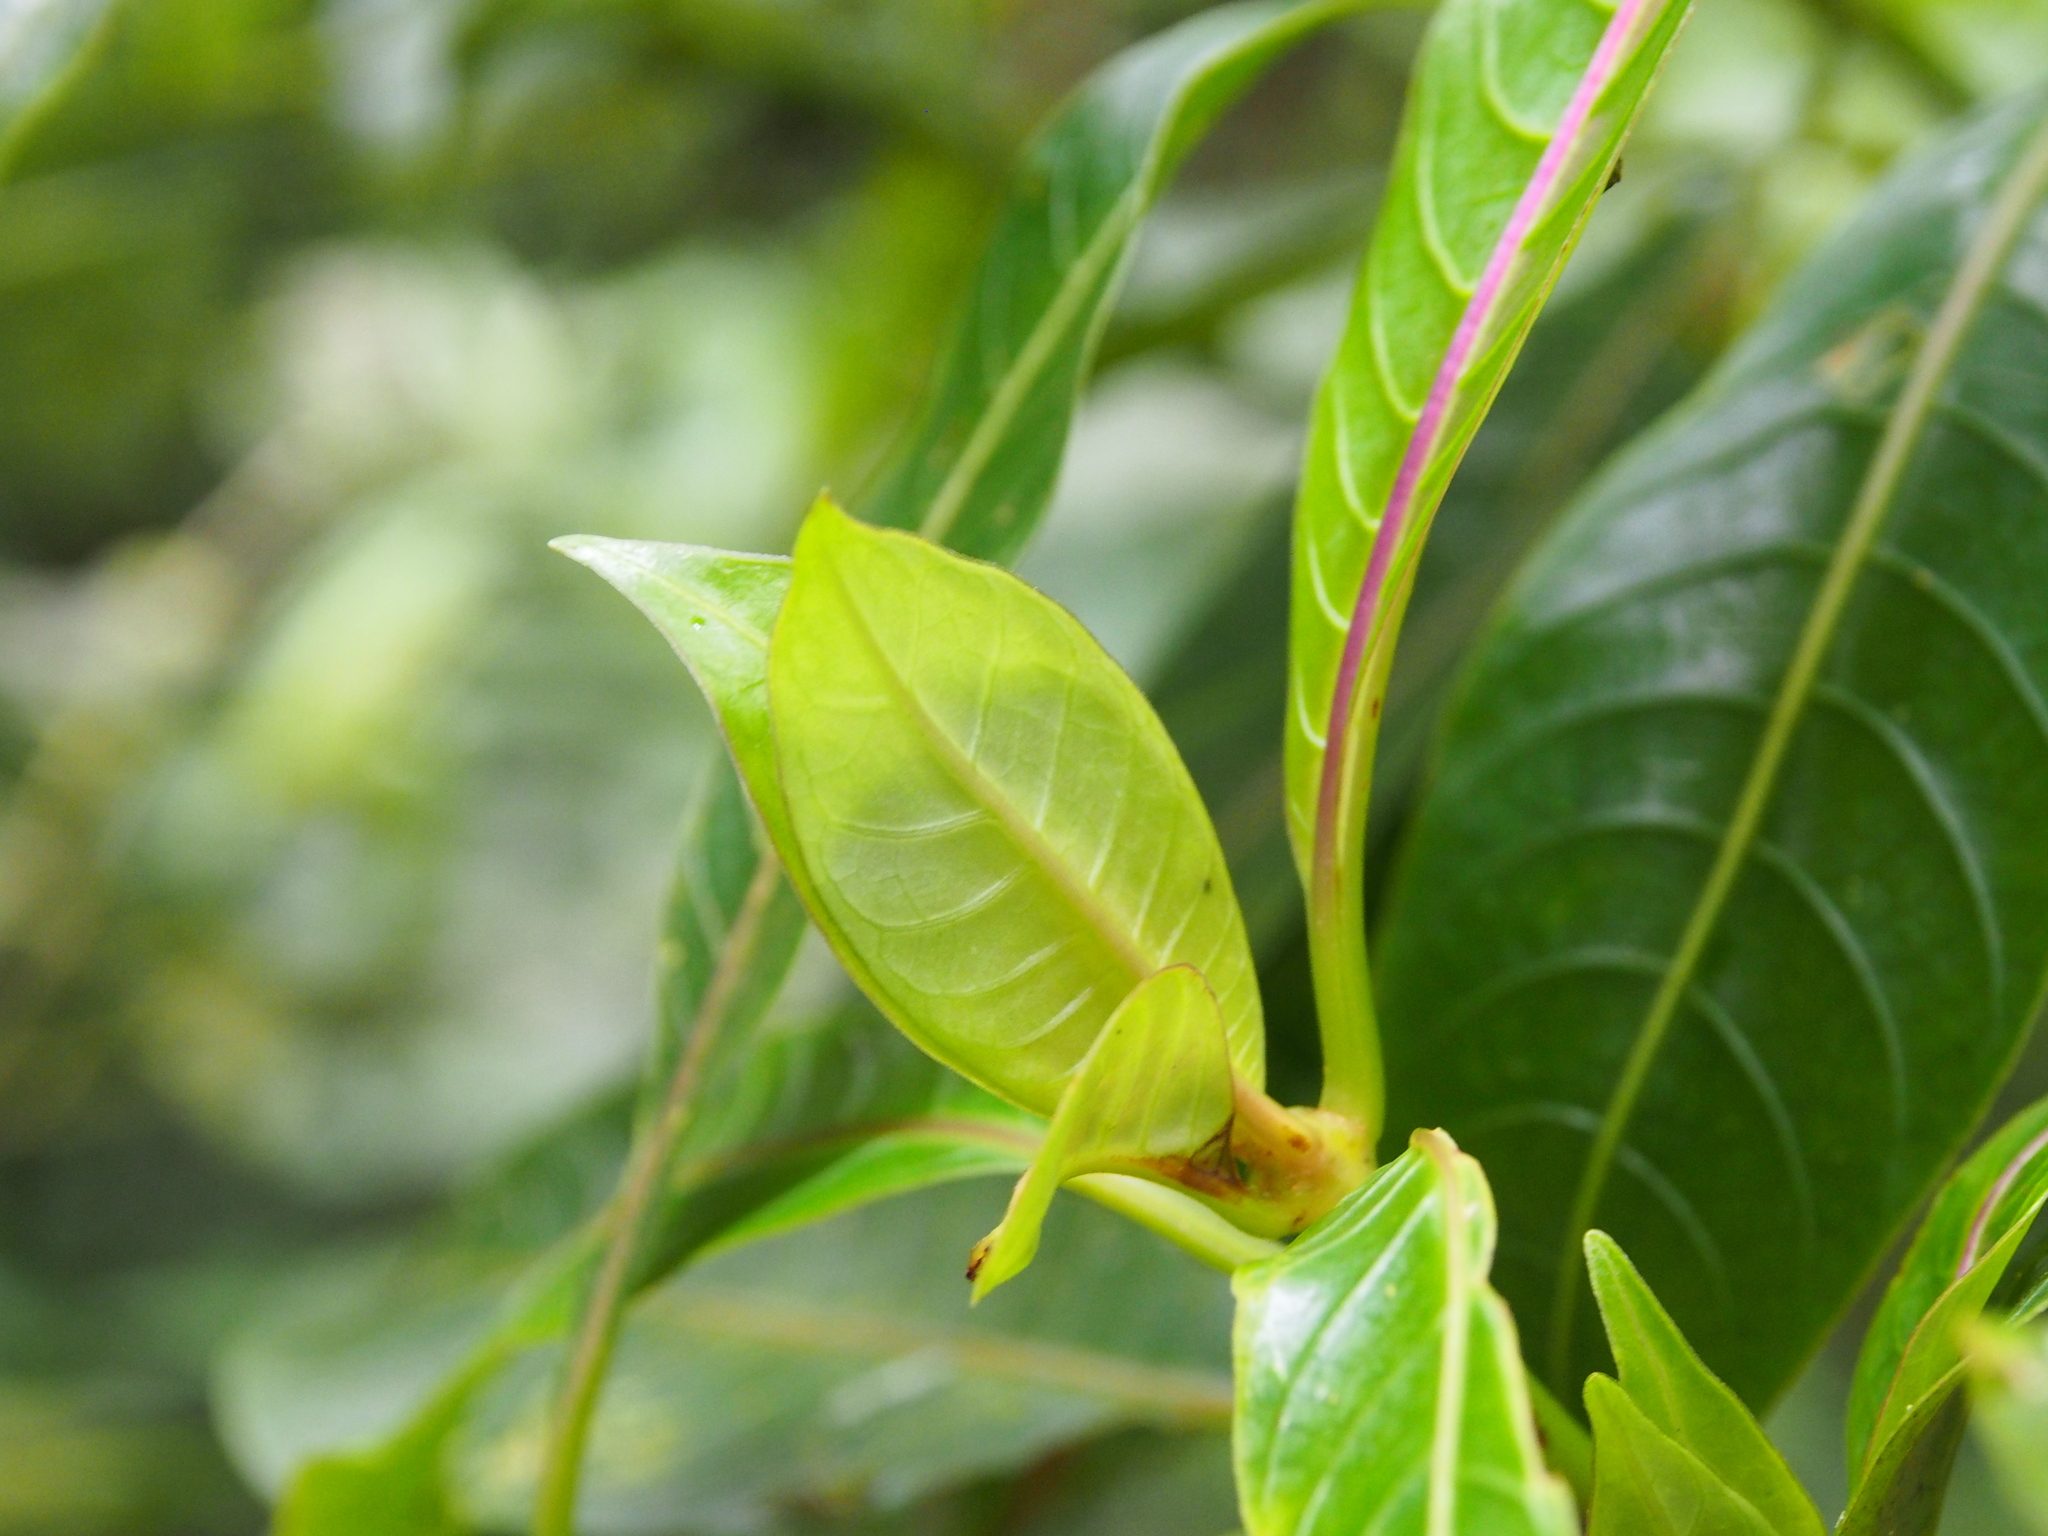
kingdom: Plantae
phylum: Tracheophyta
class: Magnoliopsida
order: Gentianales
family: Rubiaceae
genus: Palicourea
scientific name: Palicourea elata
